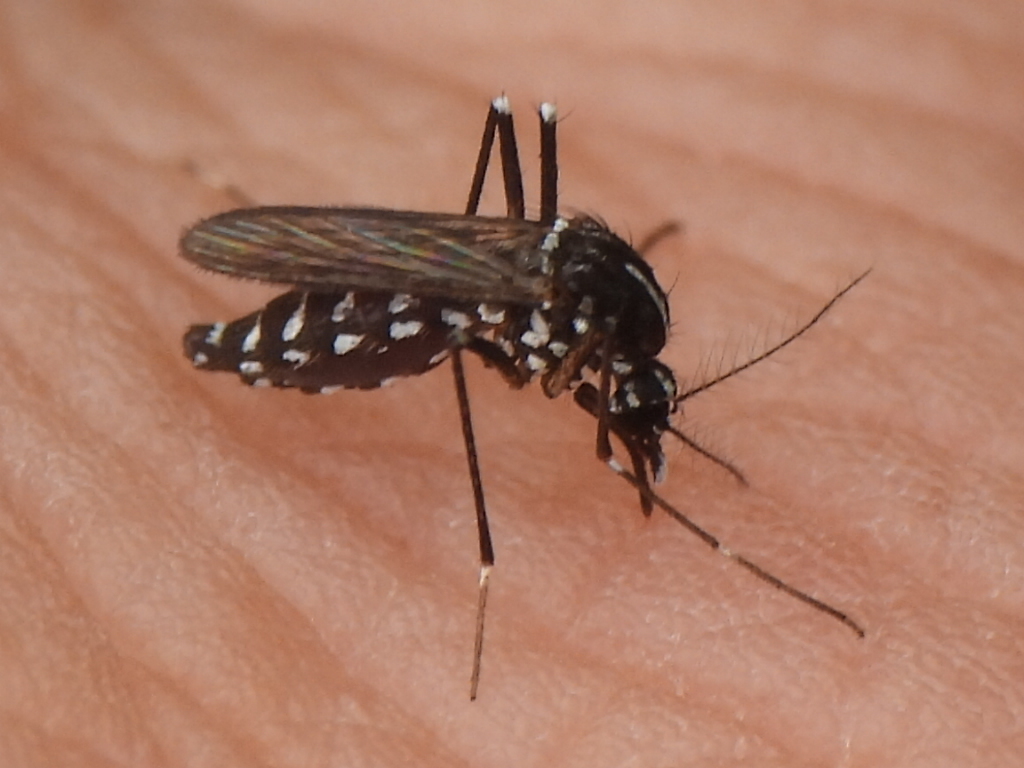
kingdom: Animalia
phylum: Arthropoda
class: Insecta
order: Diptera
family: Culicidae
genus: Aedes
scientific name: Aedes albopictus
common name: Tiger mosquito
